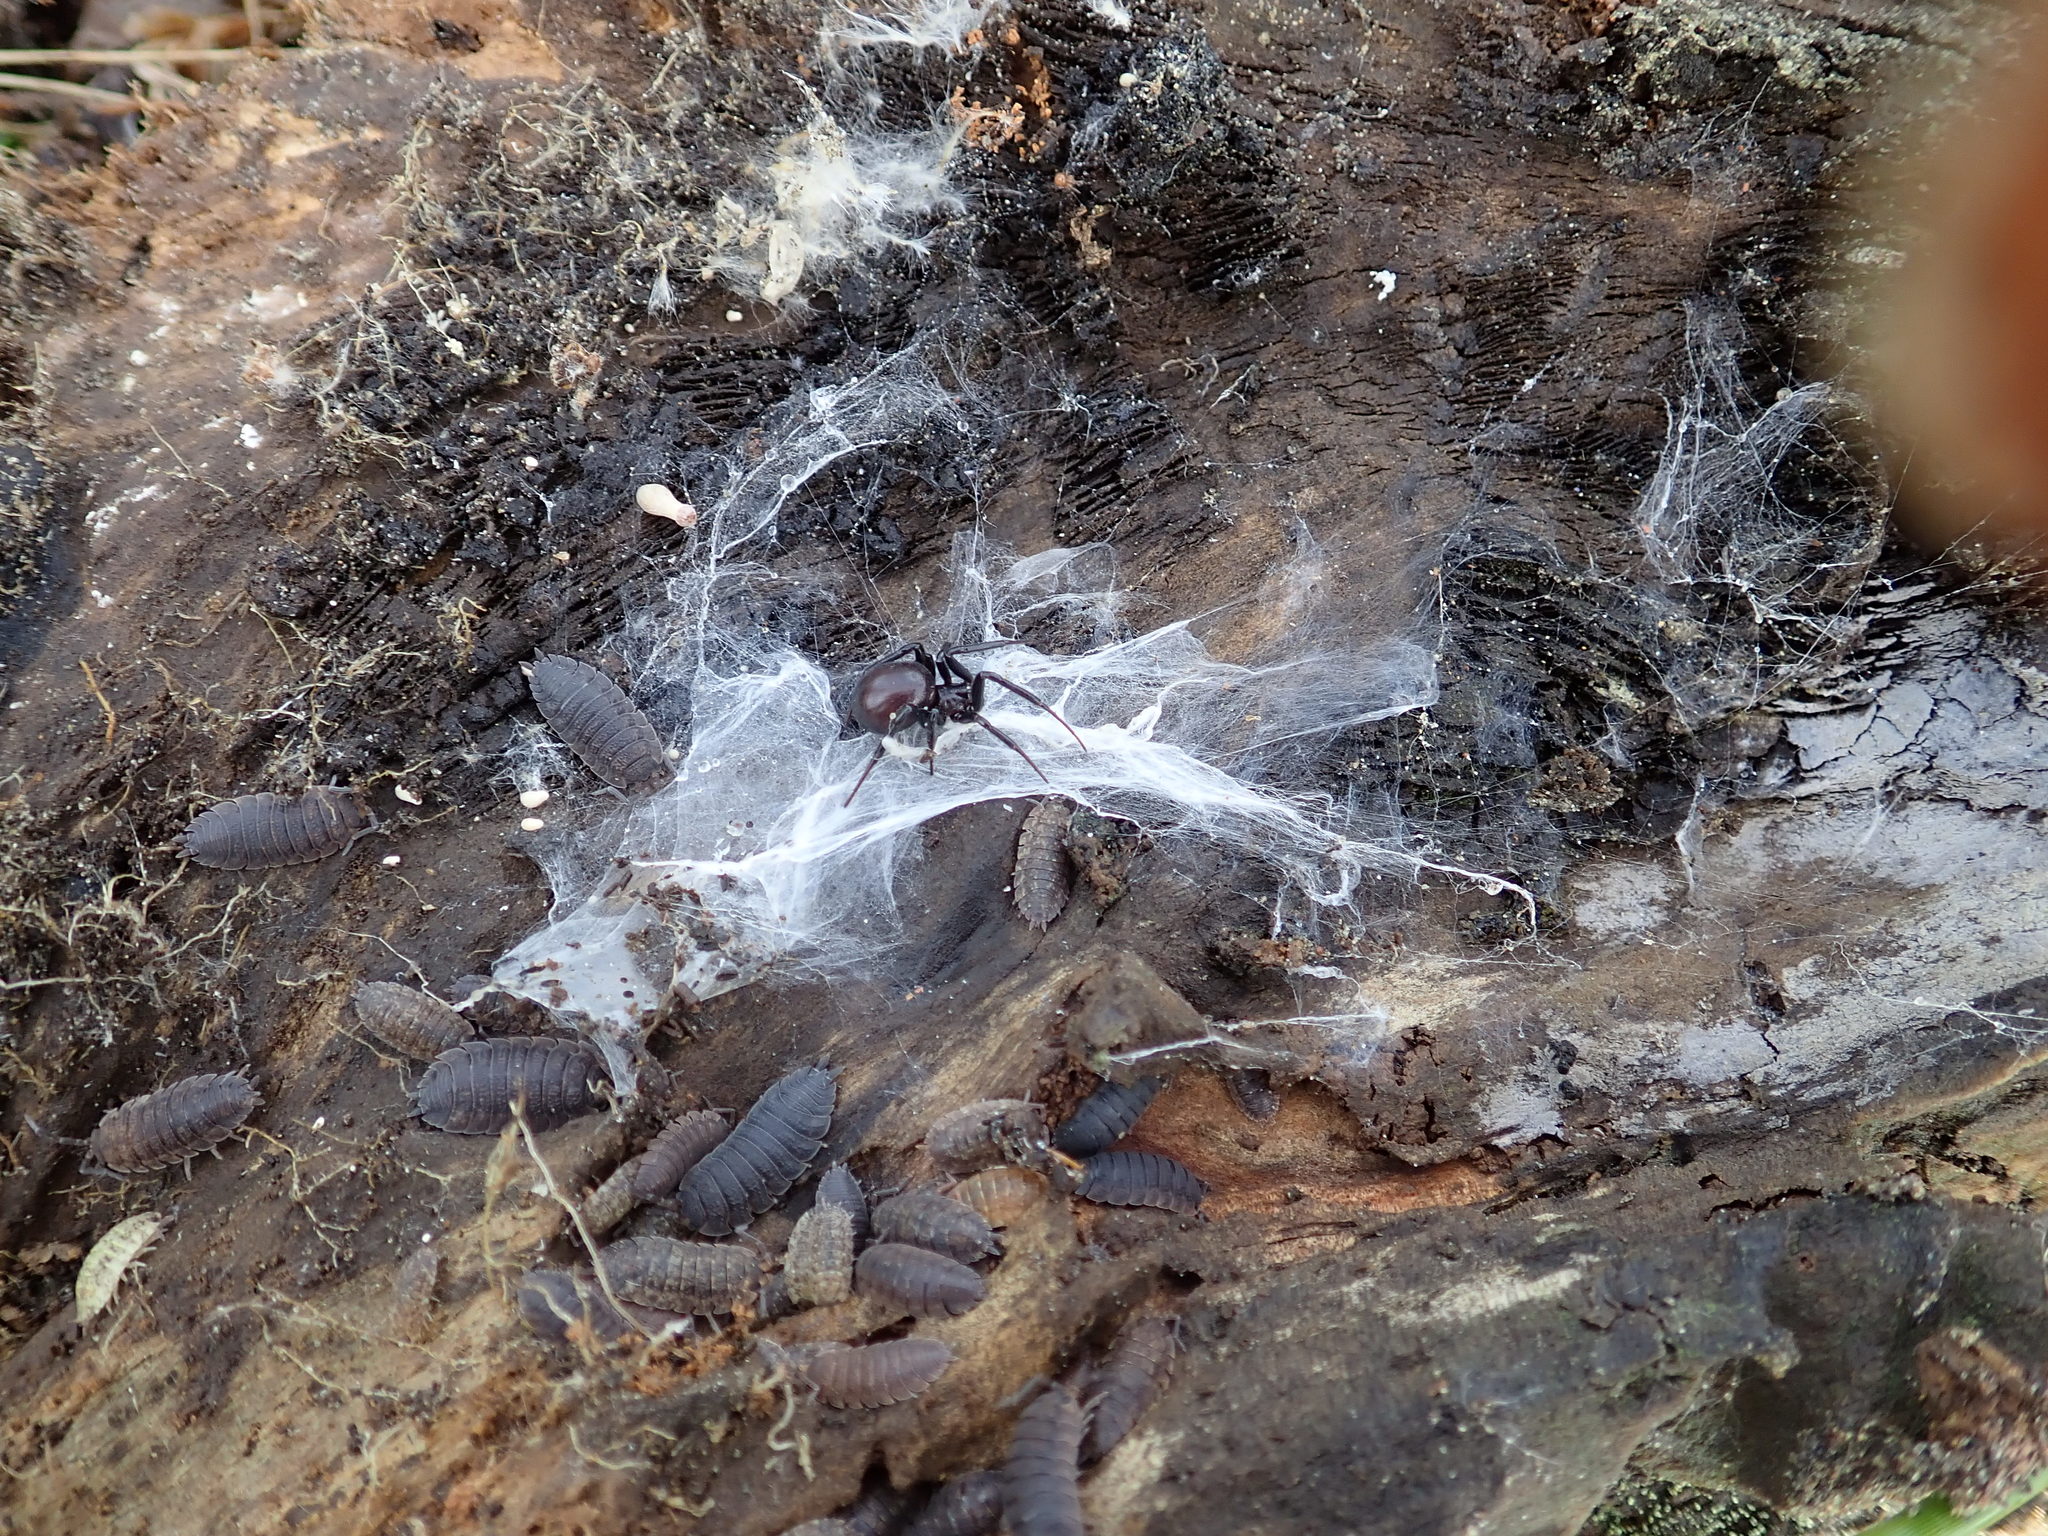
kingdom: Animalia
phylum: Arthropoda
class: Arachnida
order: Araneae
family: Theridiidae
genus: Steatoda
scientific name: Steatoda capensis
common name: Cobweb weaver
